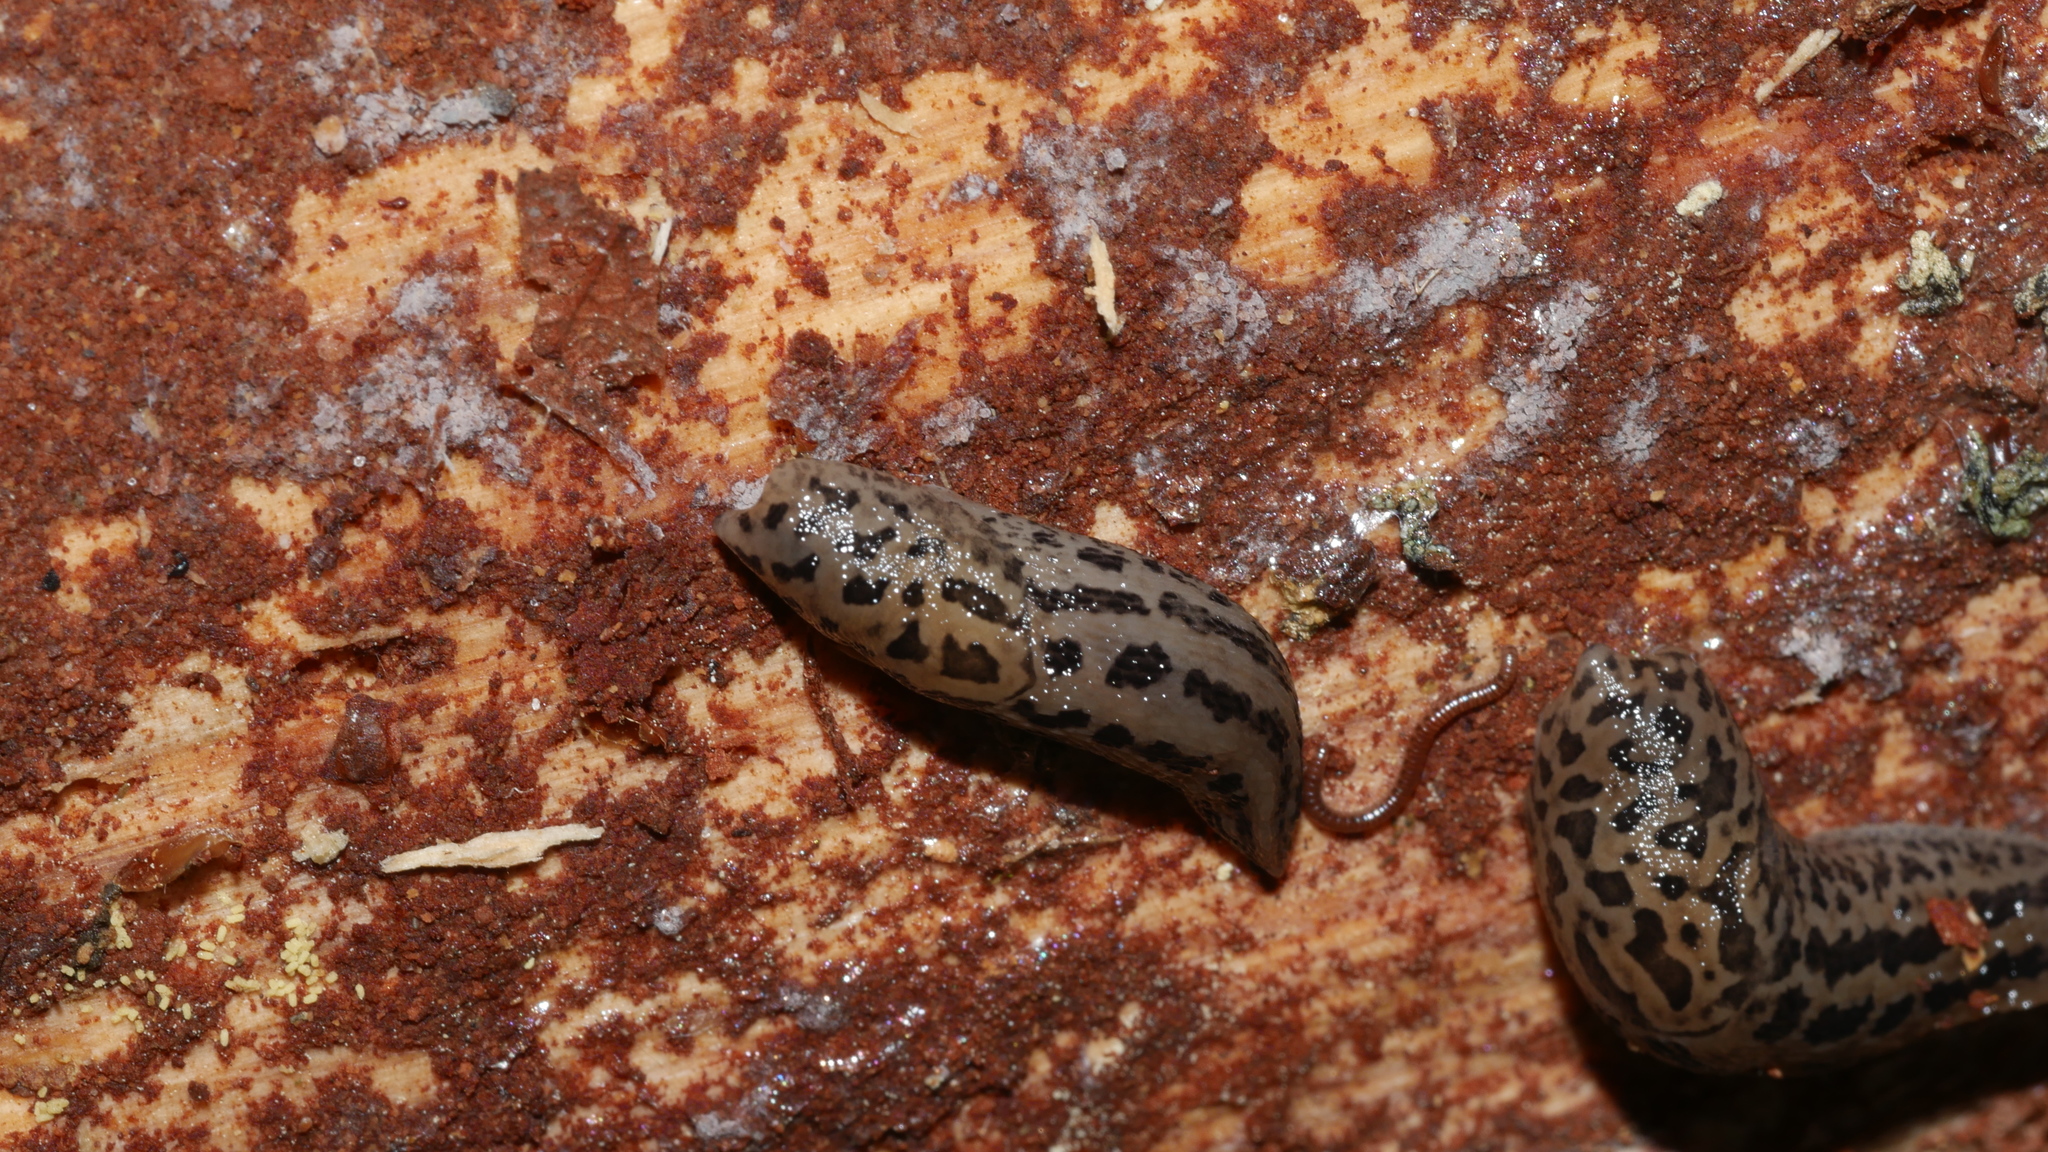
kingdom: Animalia
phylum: Mollusca
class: Gastropoda
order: Stylommatophora
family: Limacidae
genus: Limax
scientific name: Limax maximus
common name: Great grey slug
